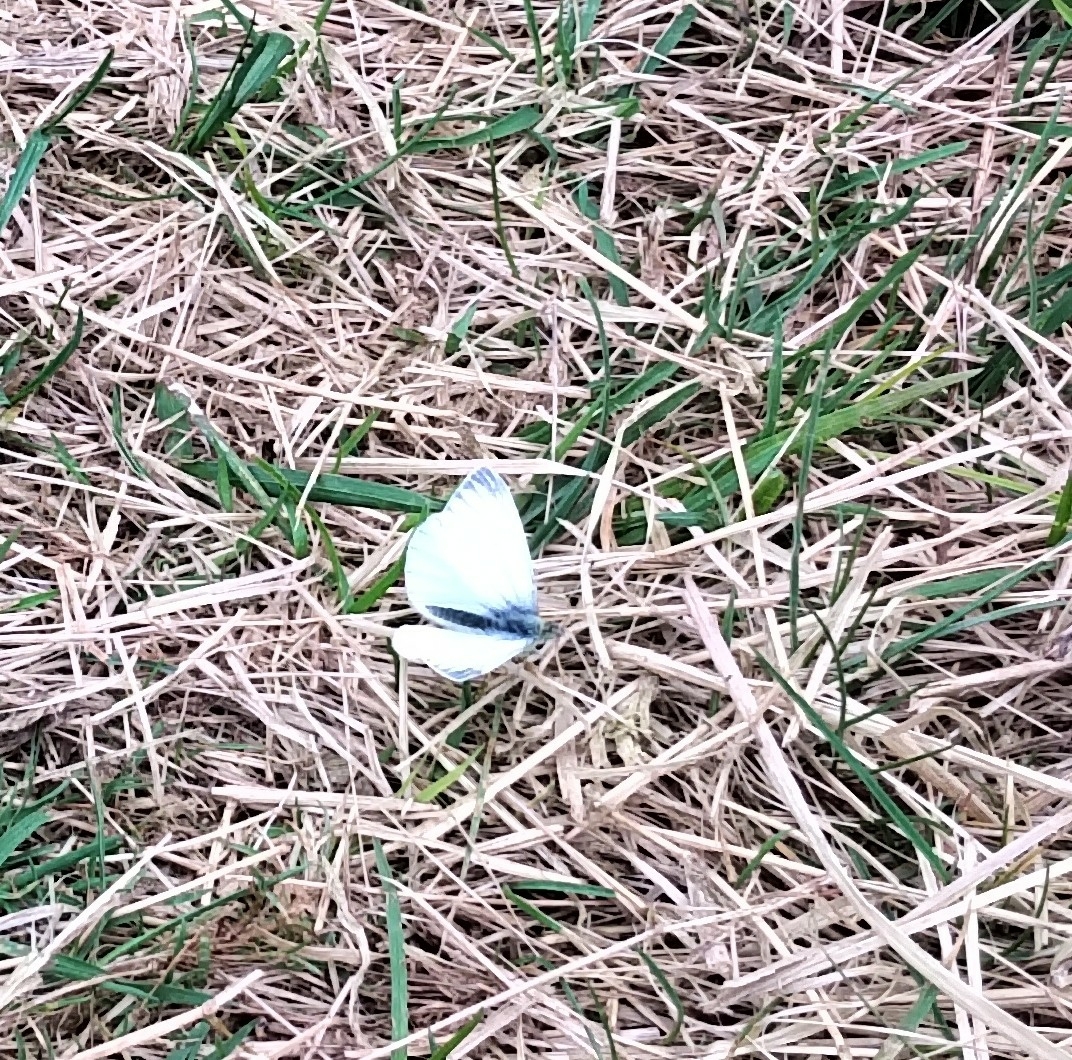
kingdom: Animalia
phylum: Arthropoda
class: Insecta
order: Lepidoptera
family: Pieridae
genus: Pieris
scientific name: Pieris napi
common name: Green-veined white
